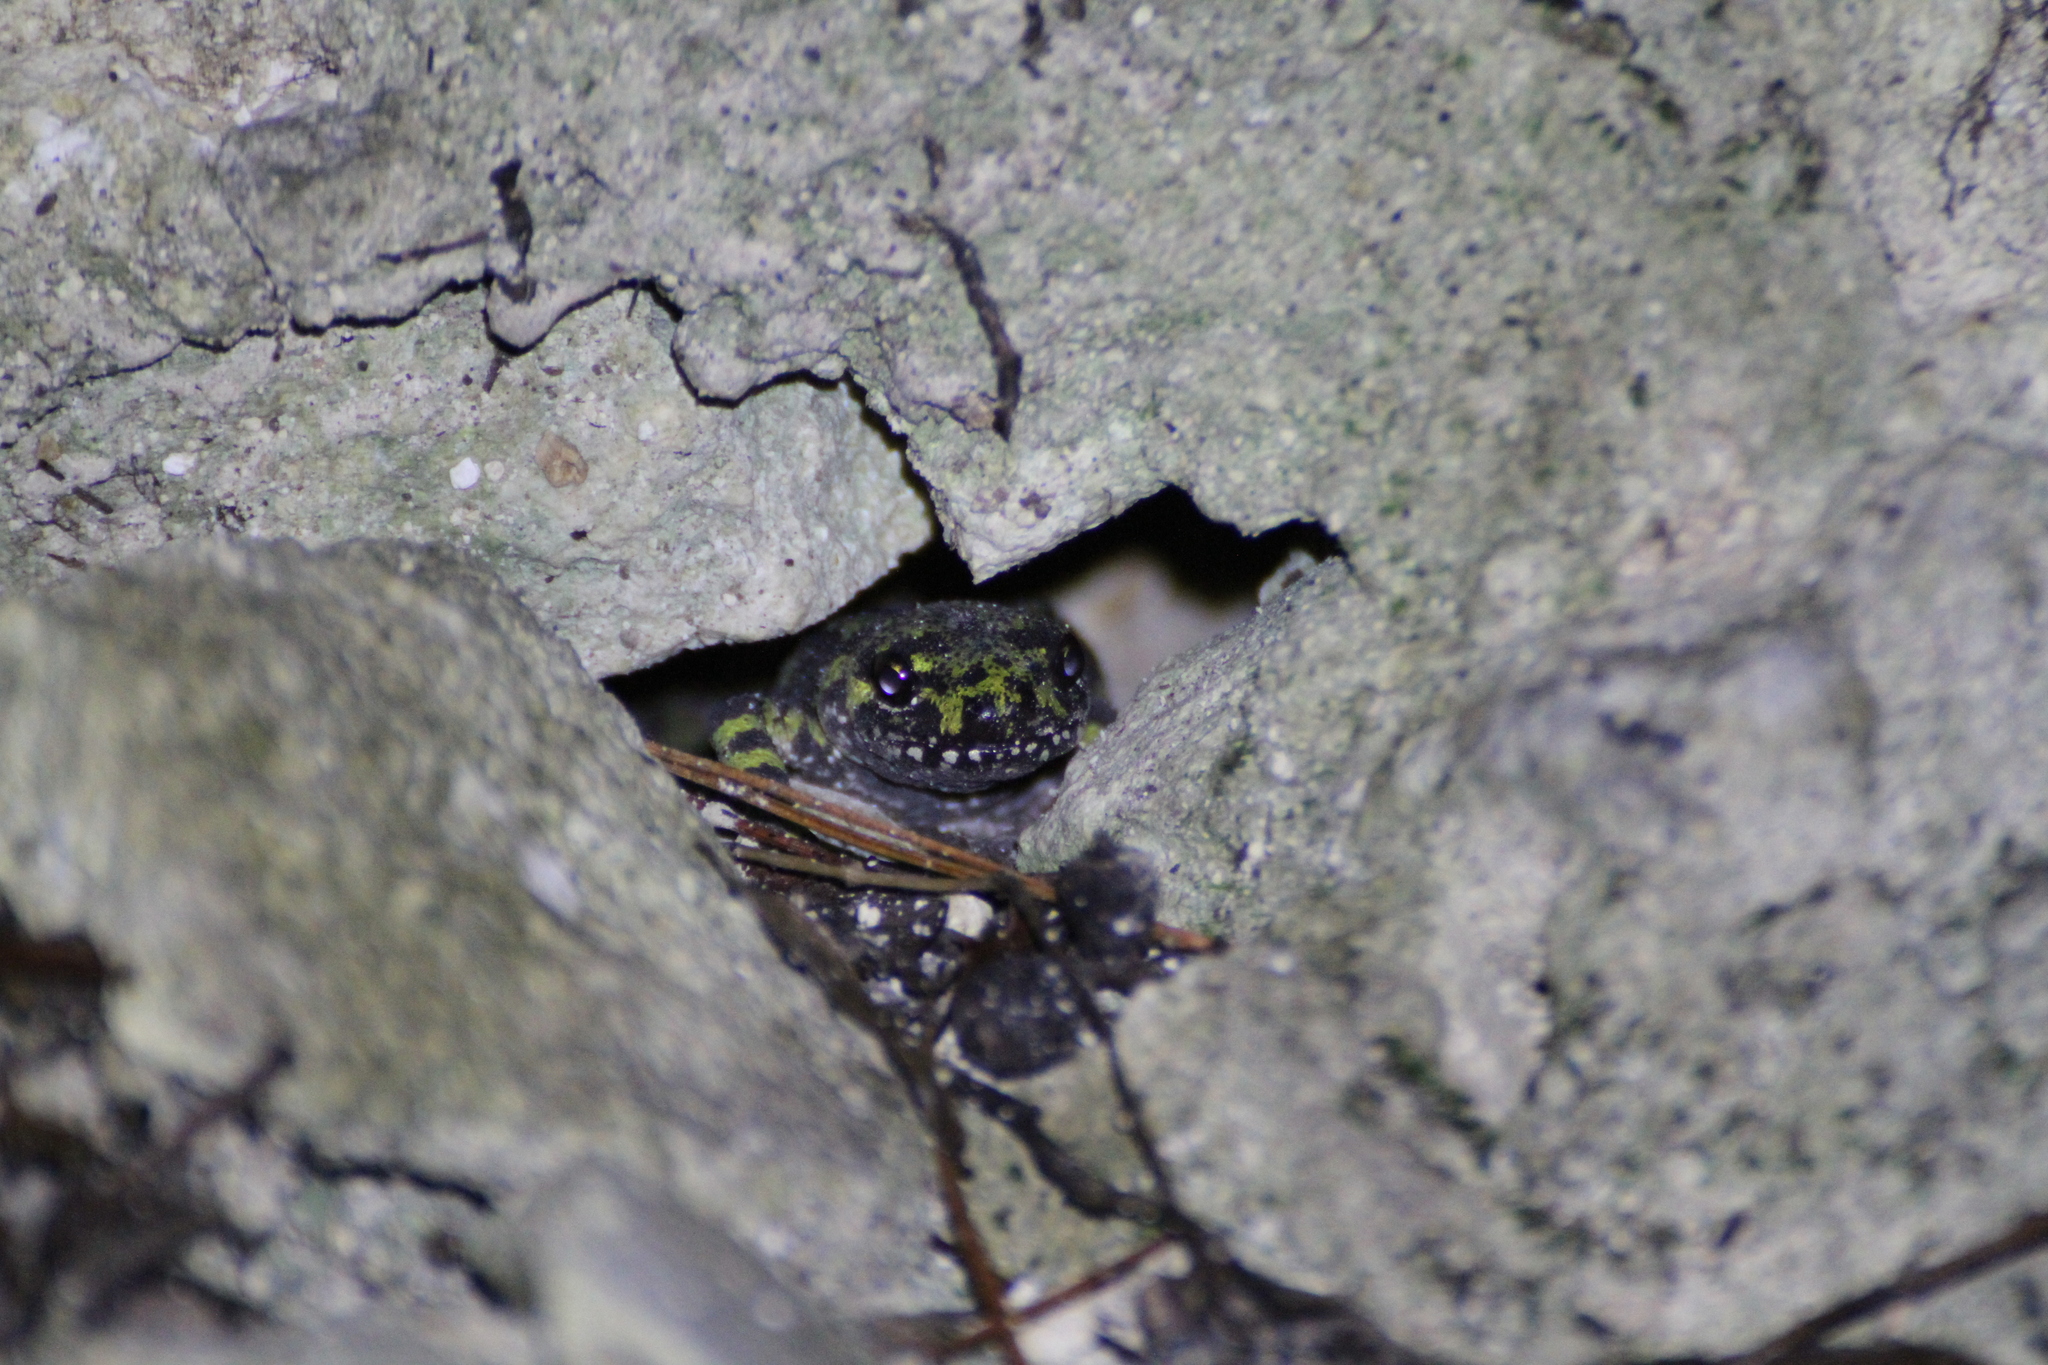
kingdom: Animalia
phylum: Chordata
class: Amphibia
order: Caudata
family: Salamandridae
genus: Triturus
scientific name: Triturus marmoratus
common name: Marbled newt
